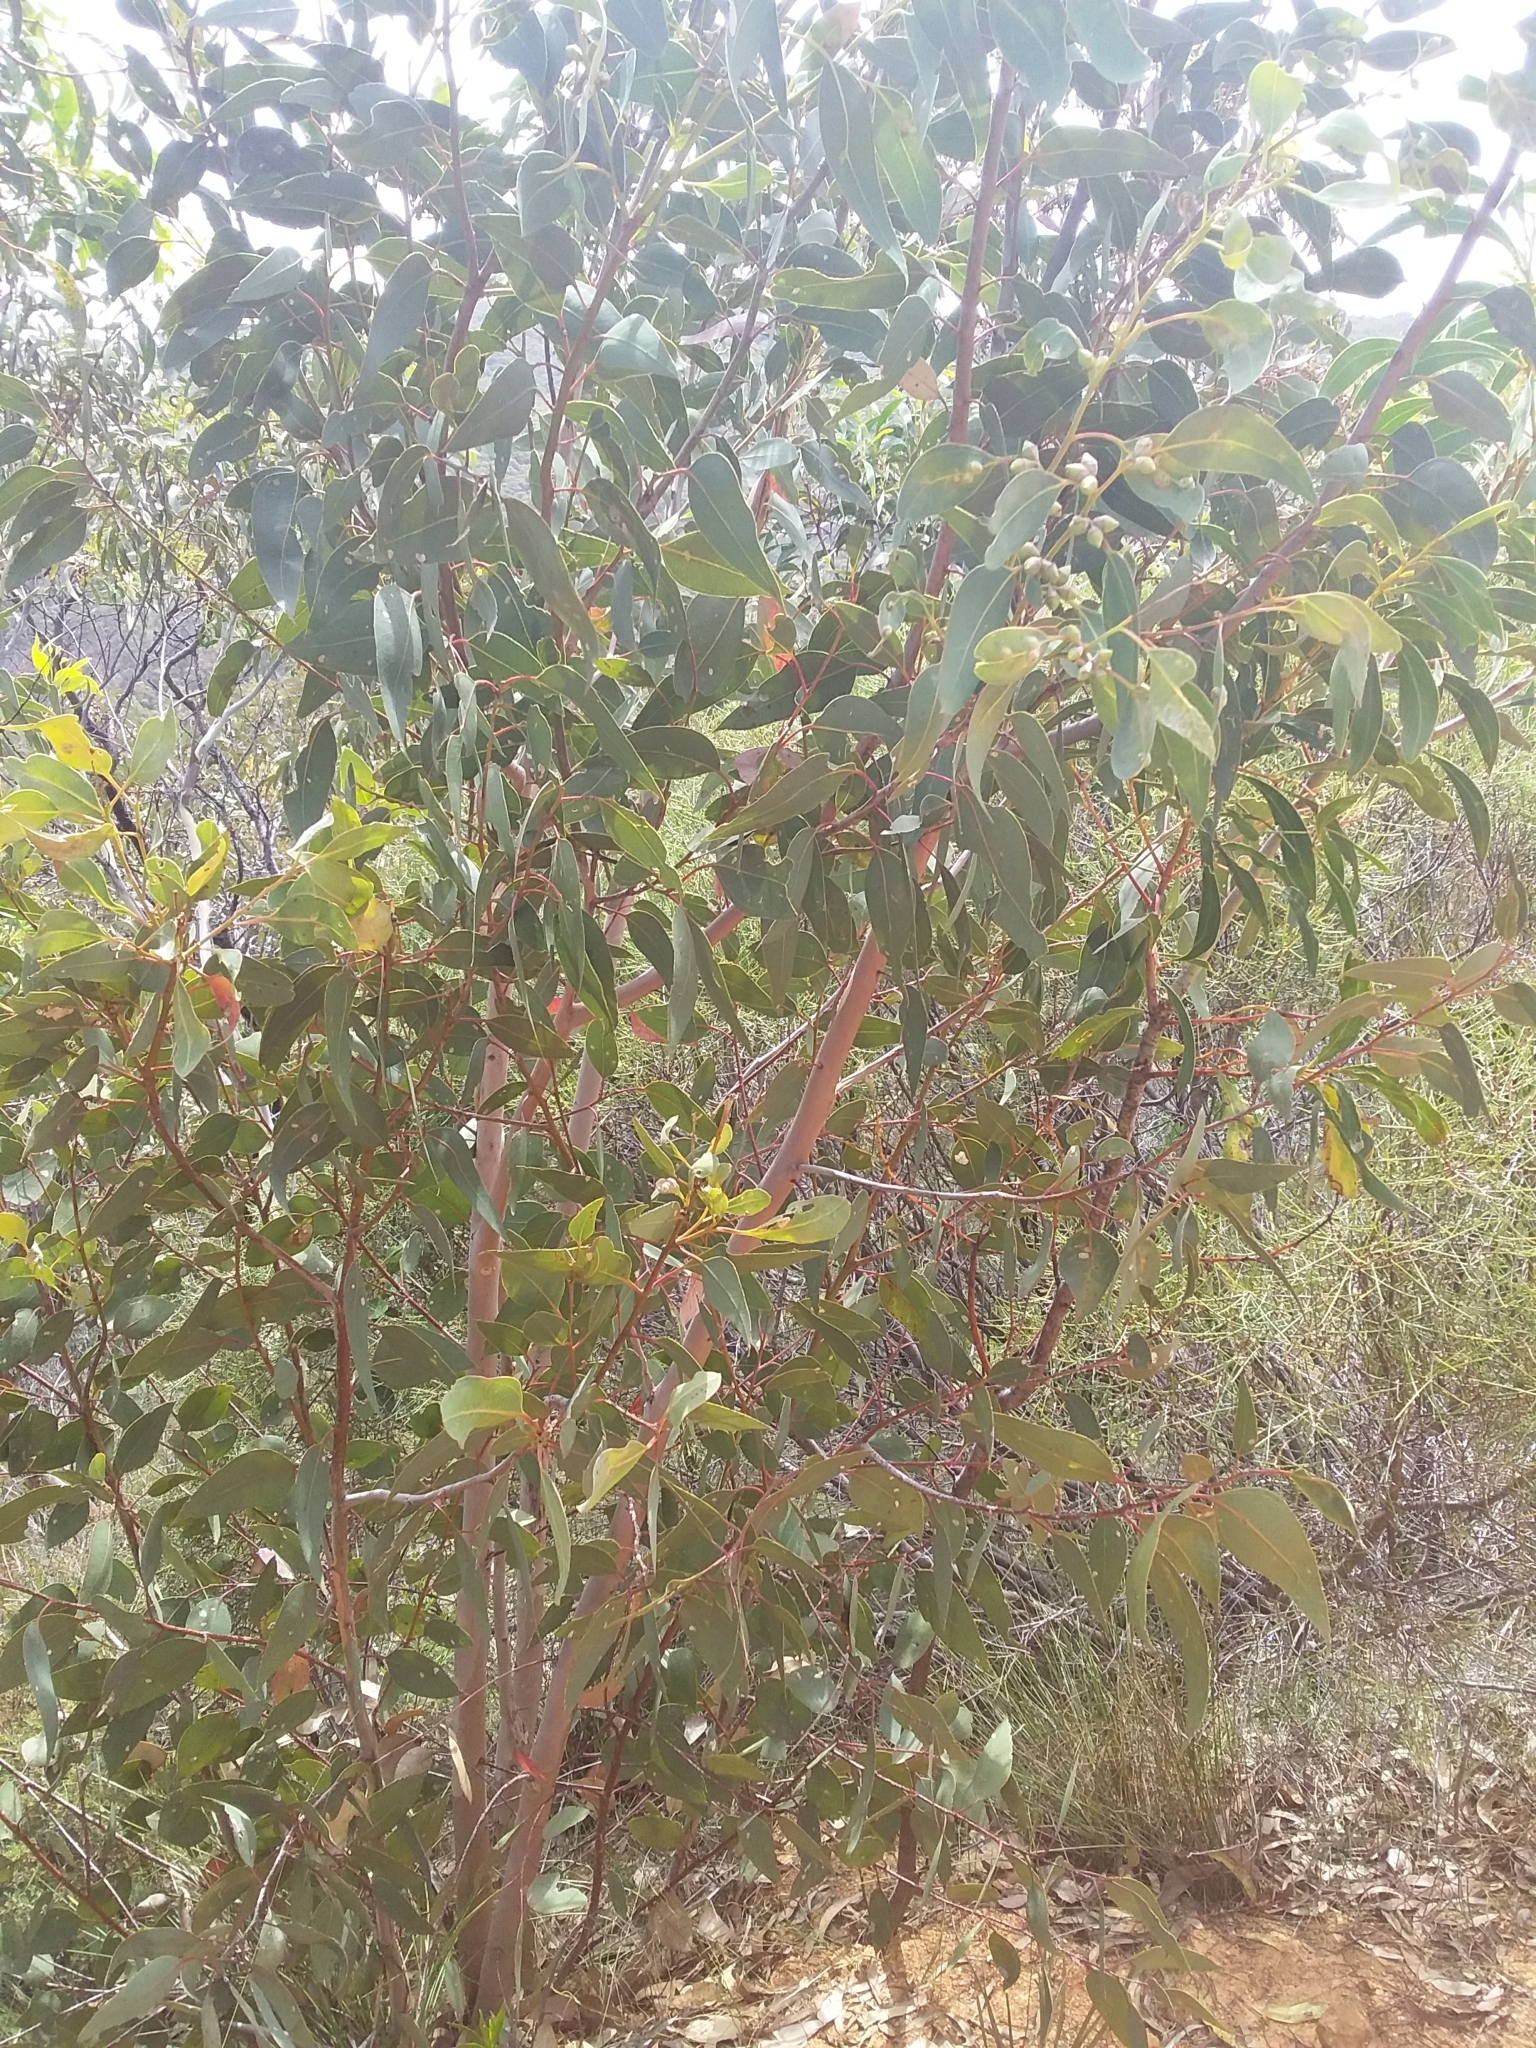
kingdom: Plantae
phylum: Tracheophyta
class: Magnoliopsida
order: Myrtales
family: Myrtaceae
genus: Eucalyptus
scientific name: Eucalyptus cosmophylla
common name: Bog-gum
